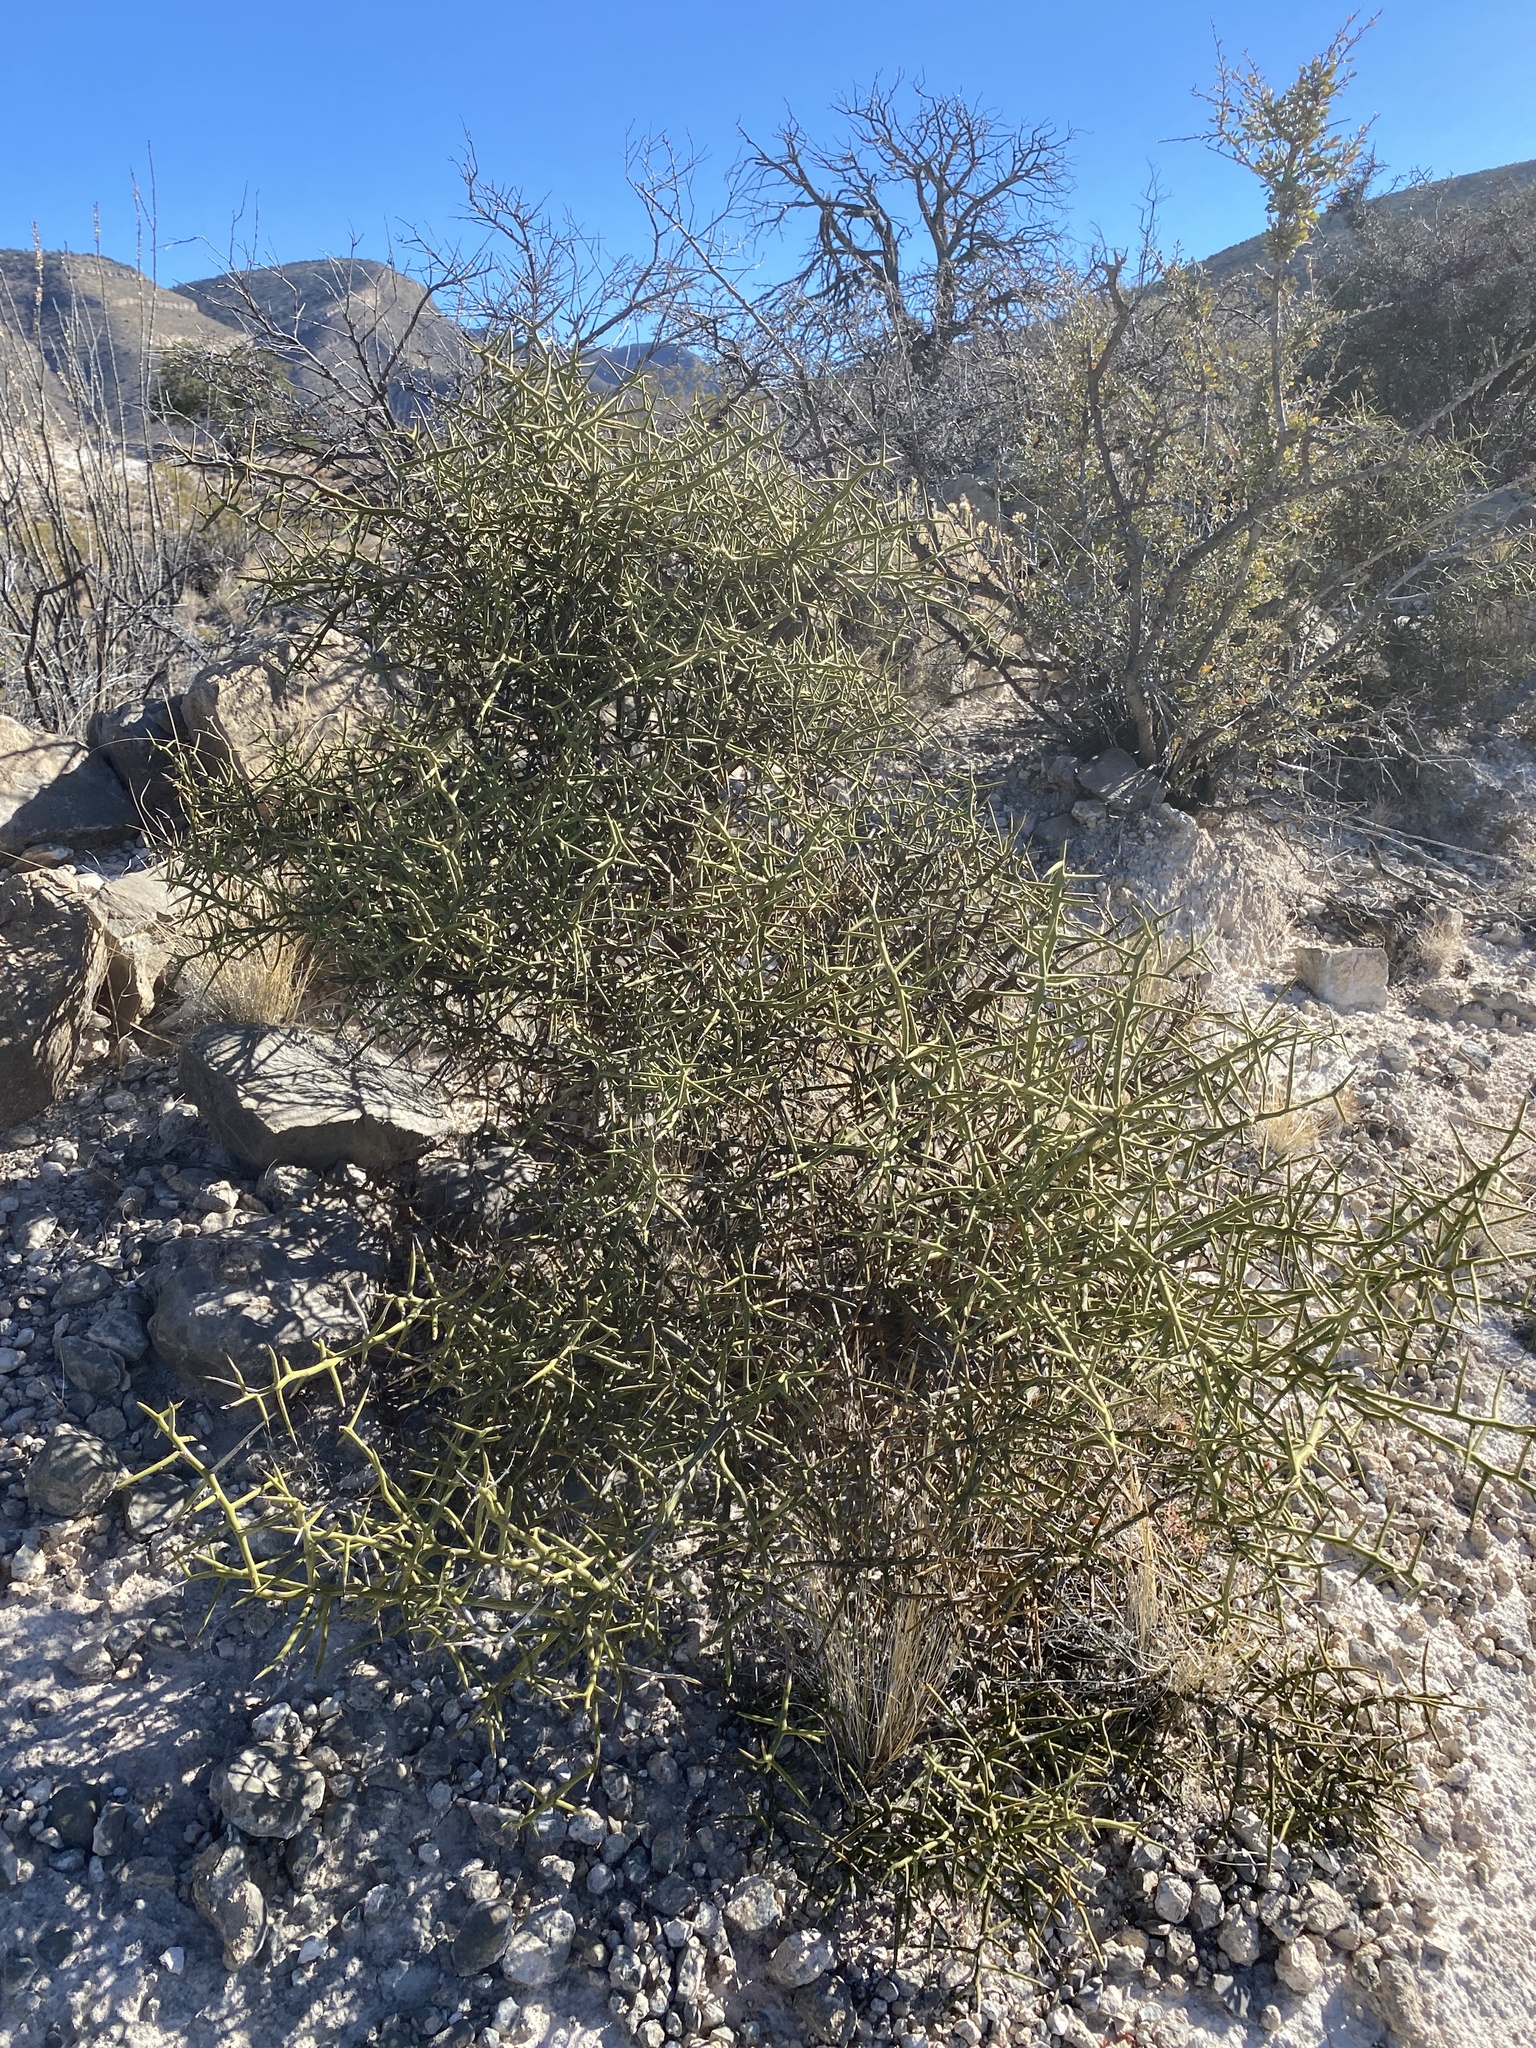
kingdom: Plantae
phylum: Tracheophyta
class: Magnoliopsida
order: Brassicales
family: Koeberliniaceae
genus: Koeberlinia
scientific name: Koeberlinia spinosa
